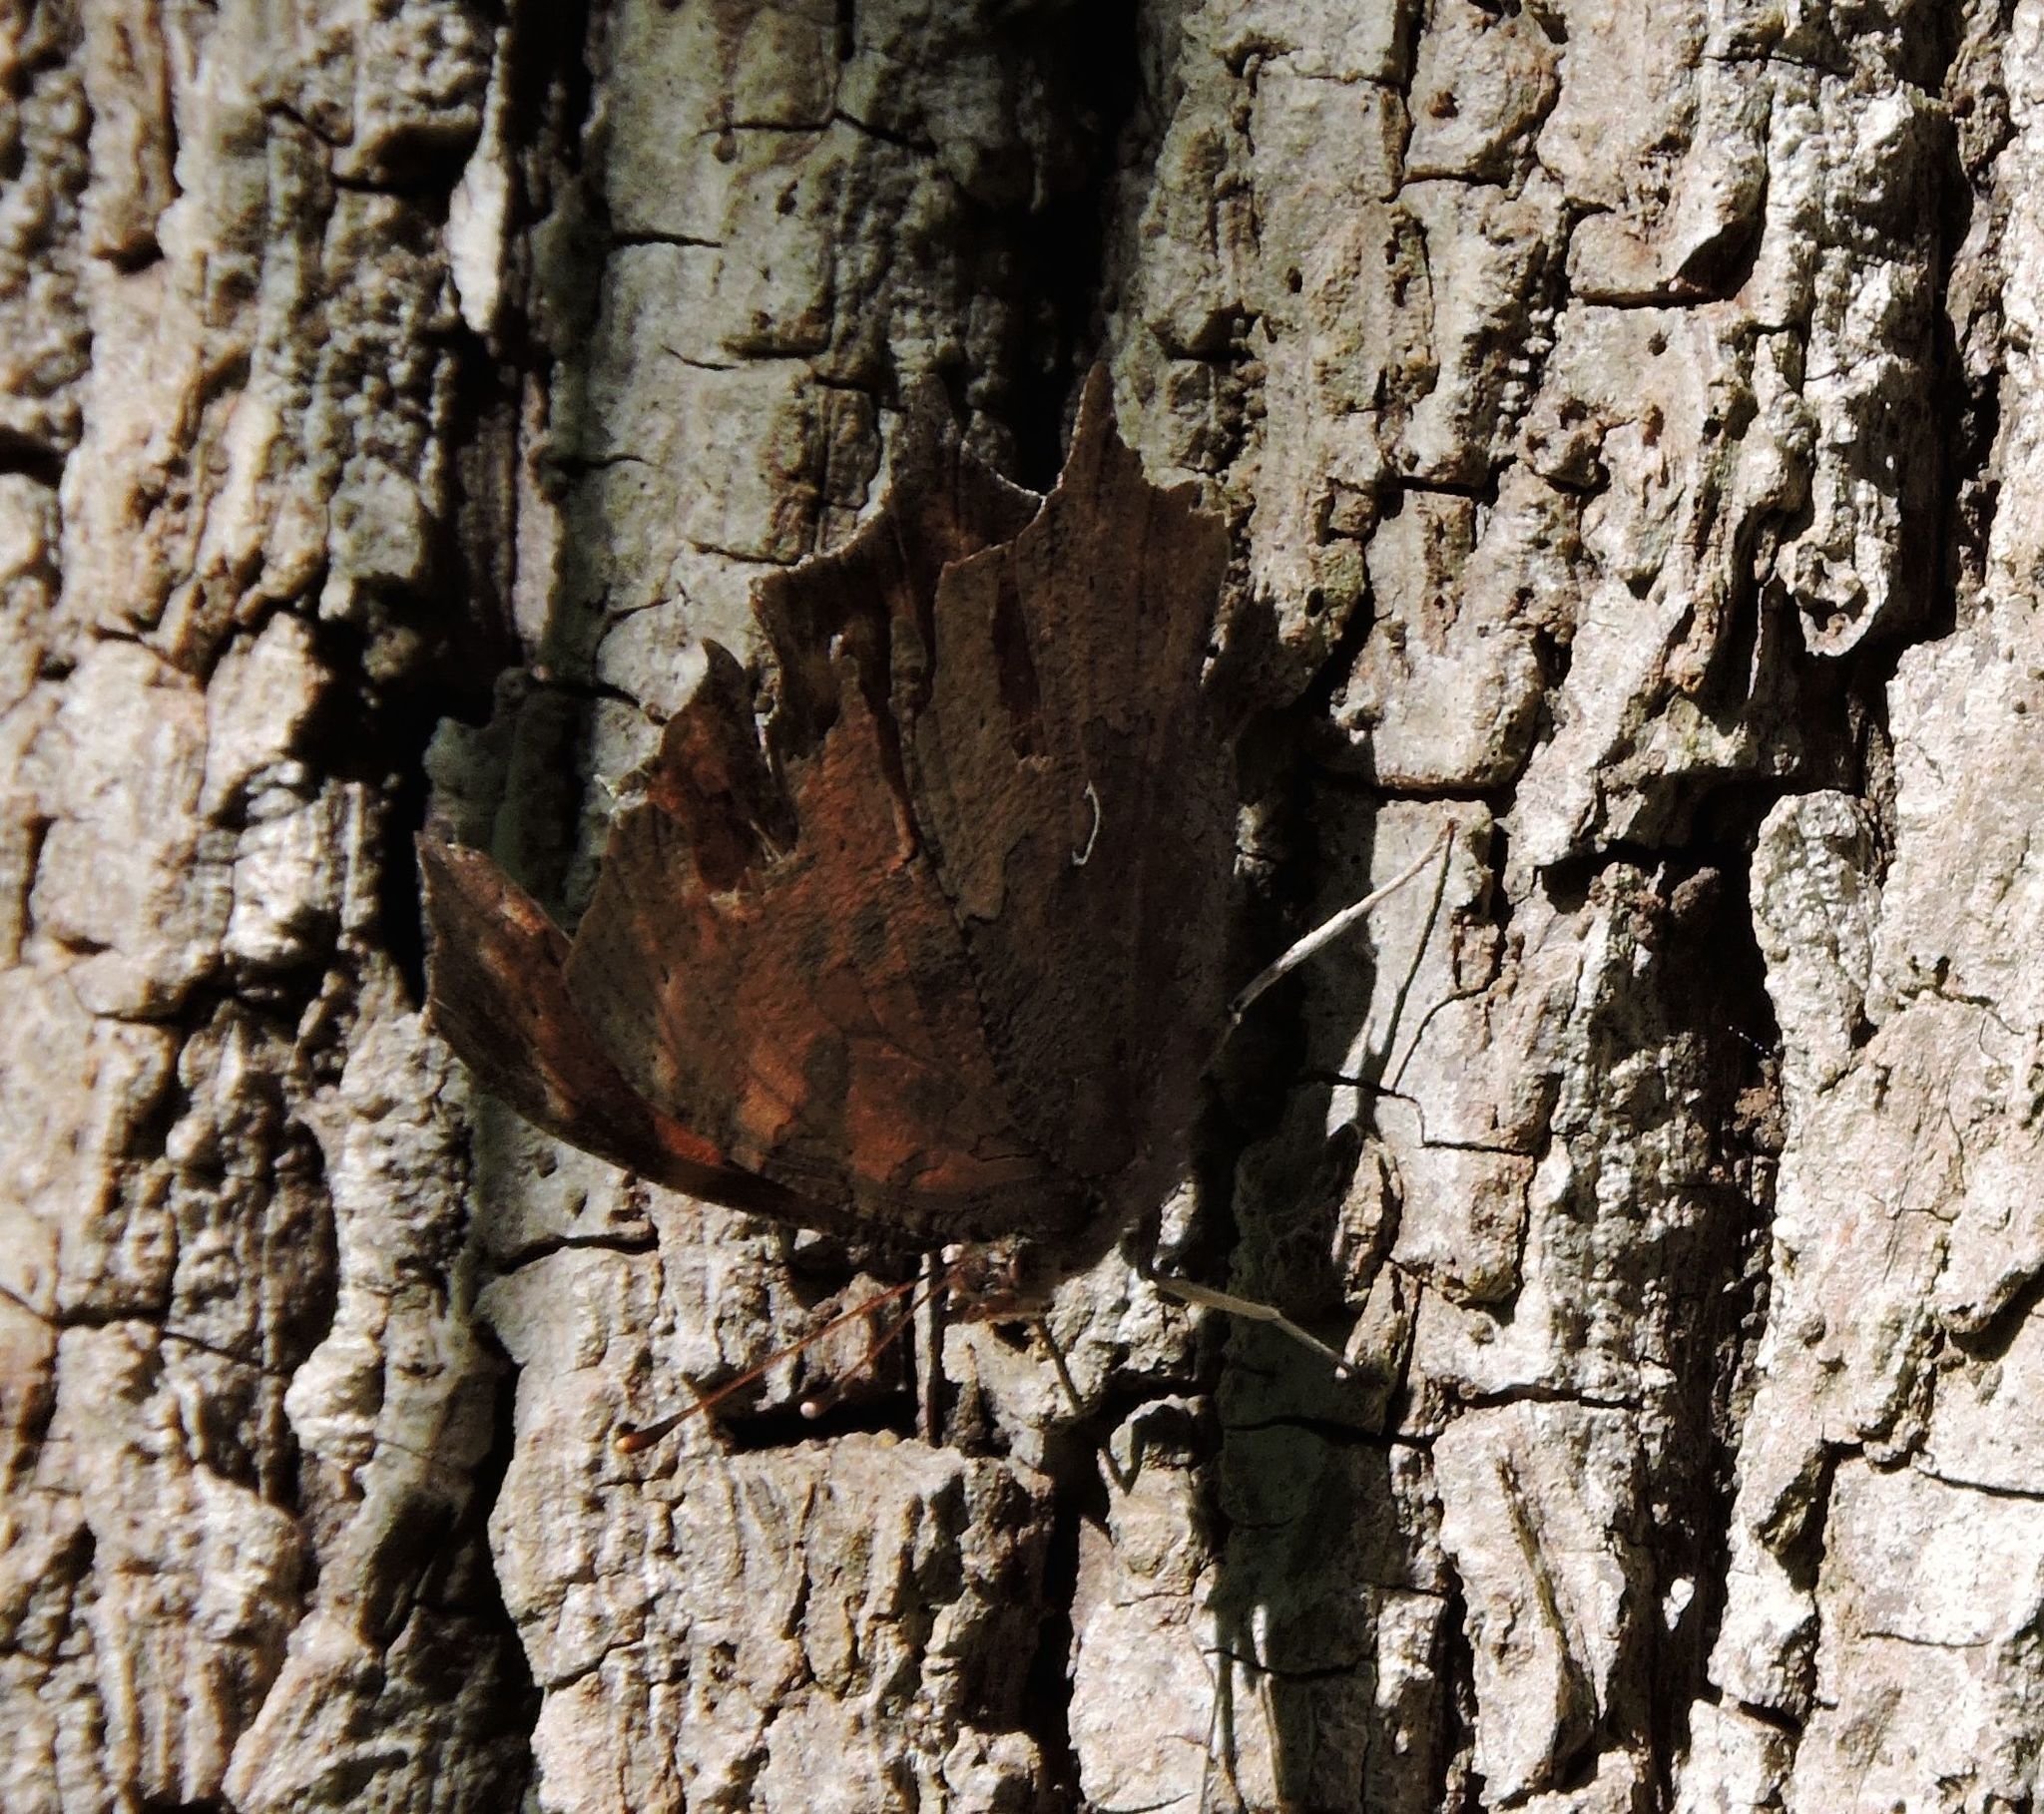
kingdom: Animalia
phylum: Arthropoda
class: Insecta
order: Lepidoptera
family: Nymphalidae
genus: Polygonia
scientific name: Polygonia comma
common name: Eastern comma
